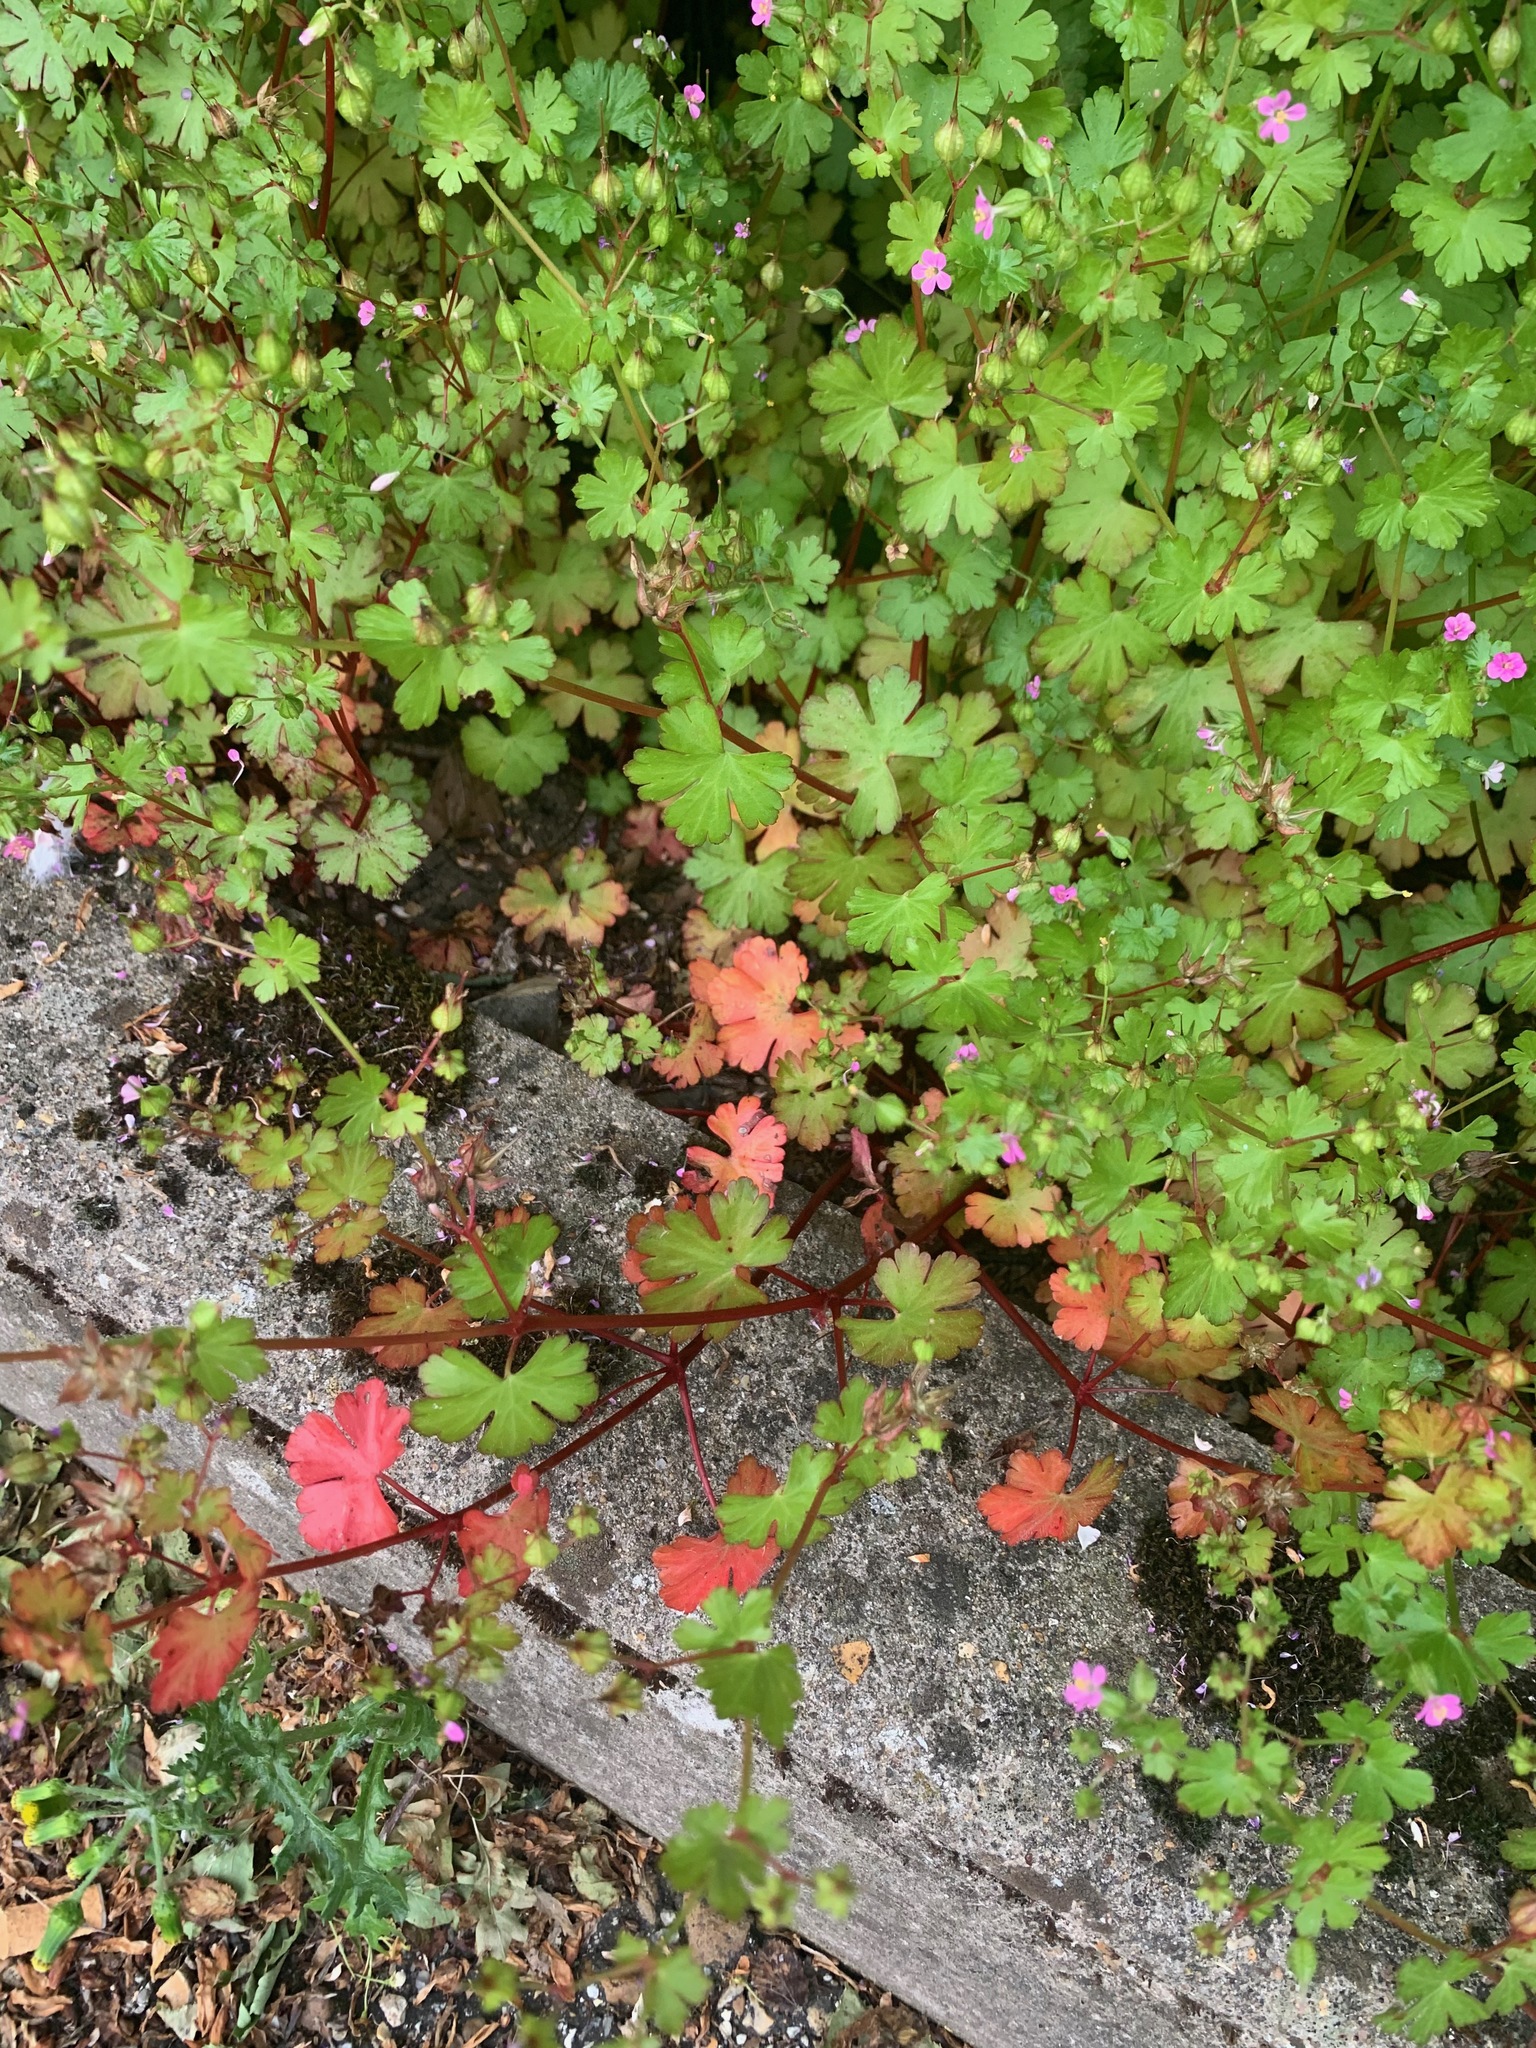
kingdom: Plantae
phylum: Tracheophyta
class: Magnoliopsida
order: Geraniales
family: Geraniaceae
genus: Geranium
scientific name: Geranium lucidum
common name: Shining crane's-bill
